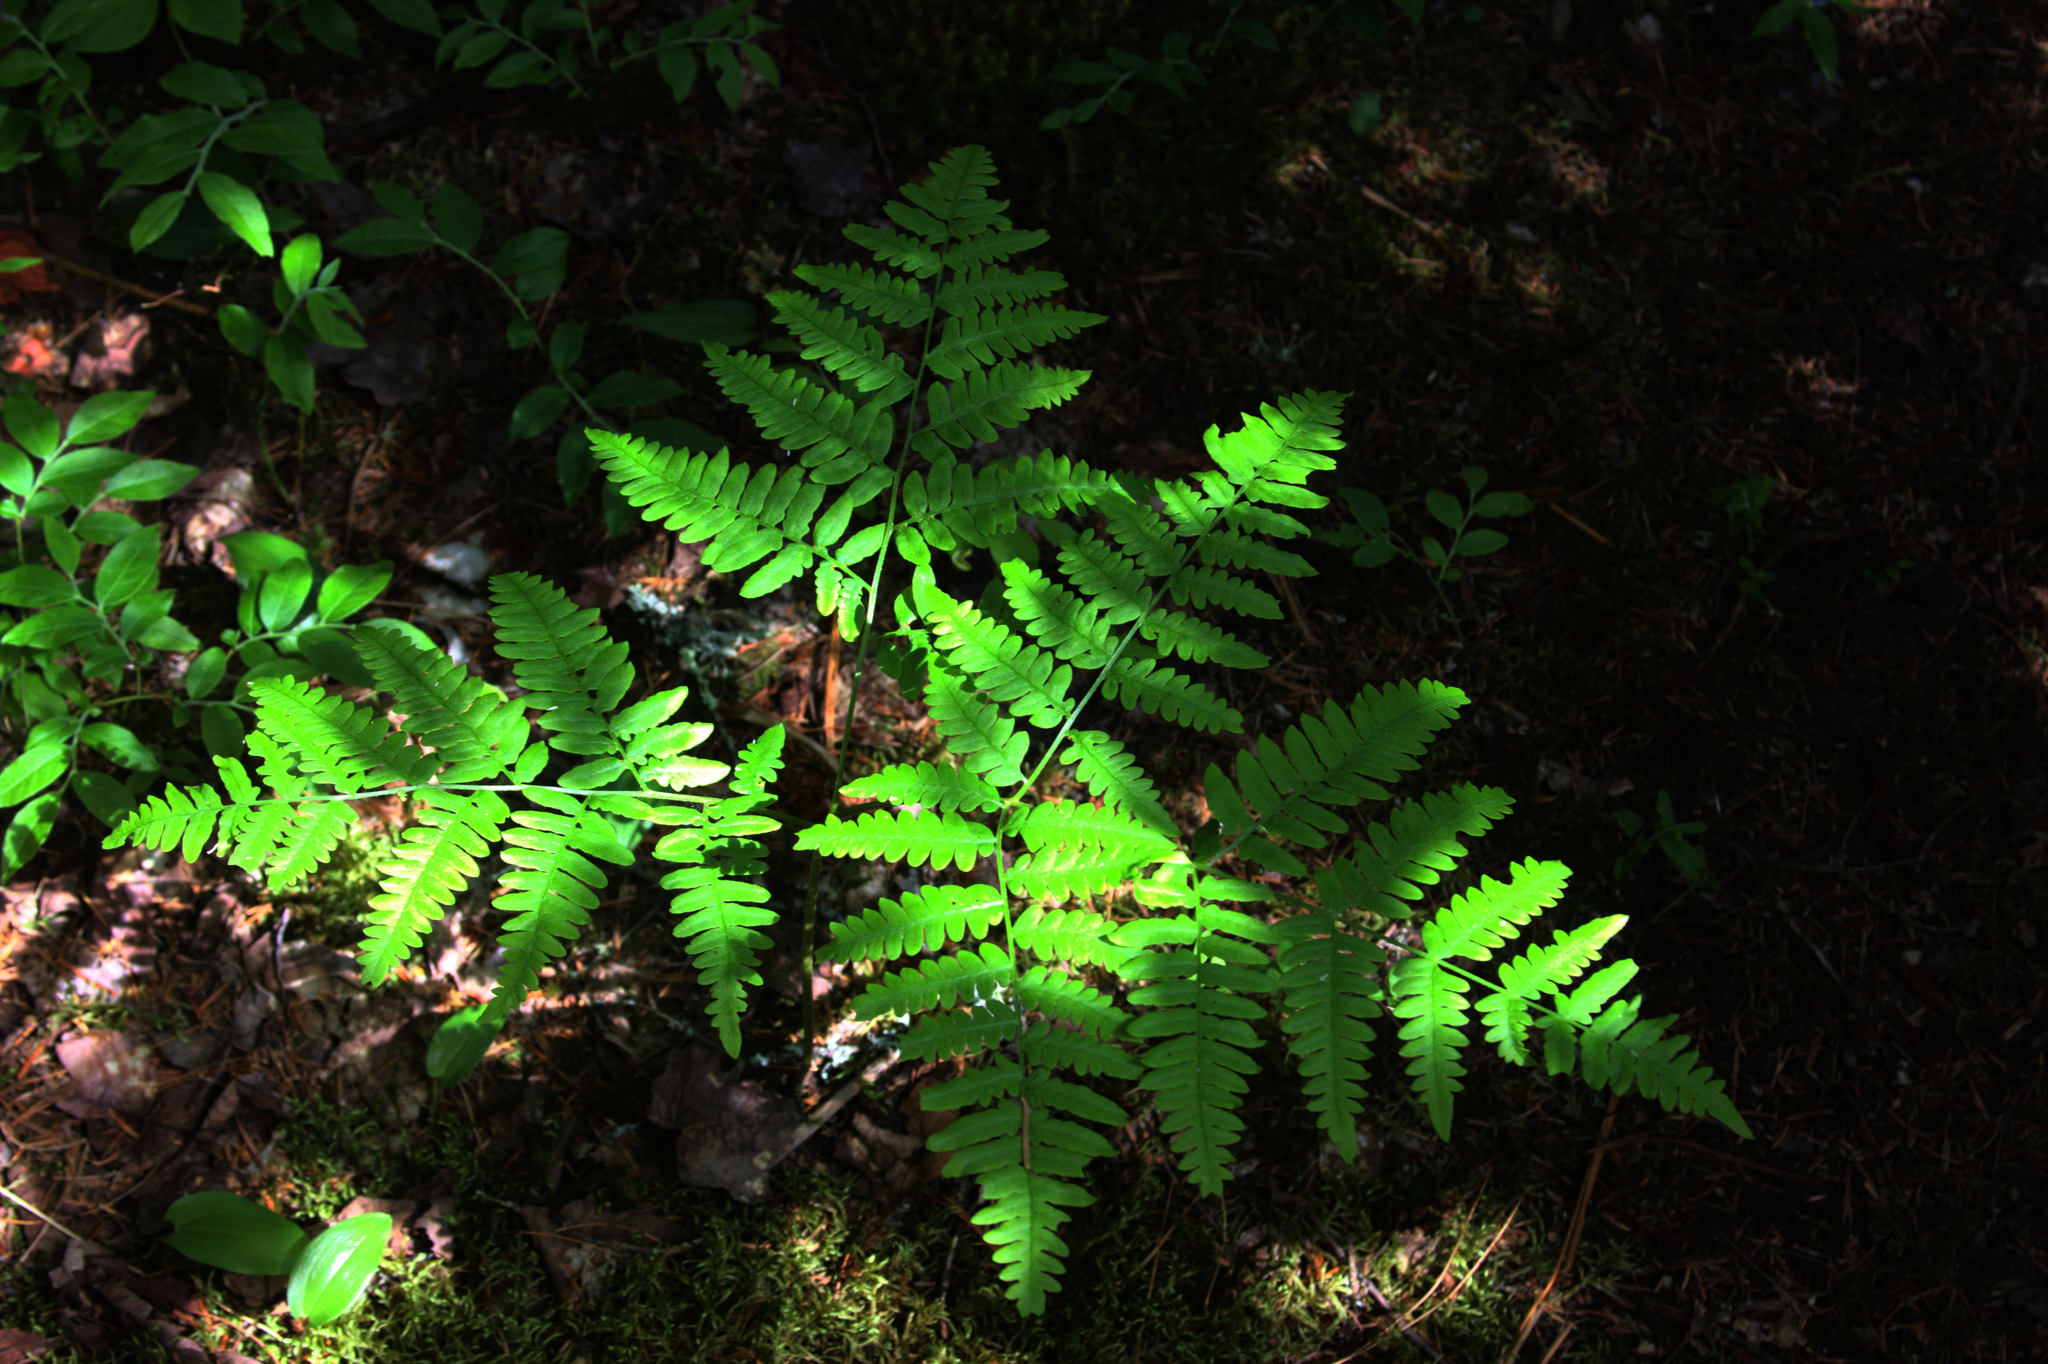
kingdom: Plantae
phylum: Tracheophyta
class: Polypodiopsida
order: Polypodiales
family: Dennstaedtiaceae
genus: Pteridium
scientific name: Pteridium aquilinum
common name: Bracken
